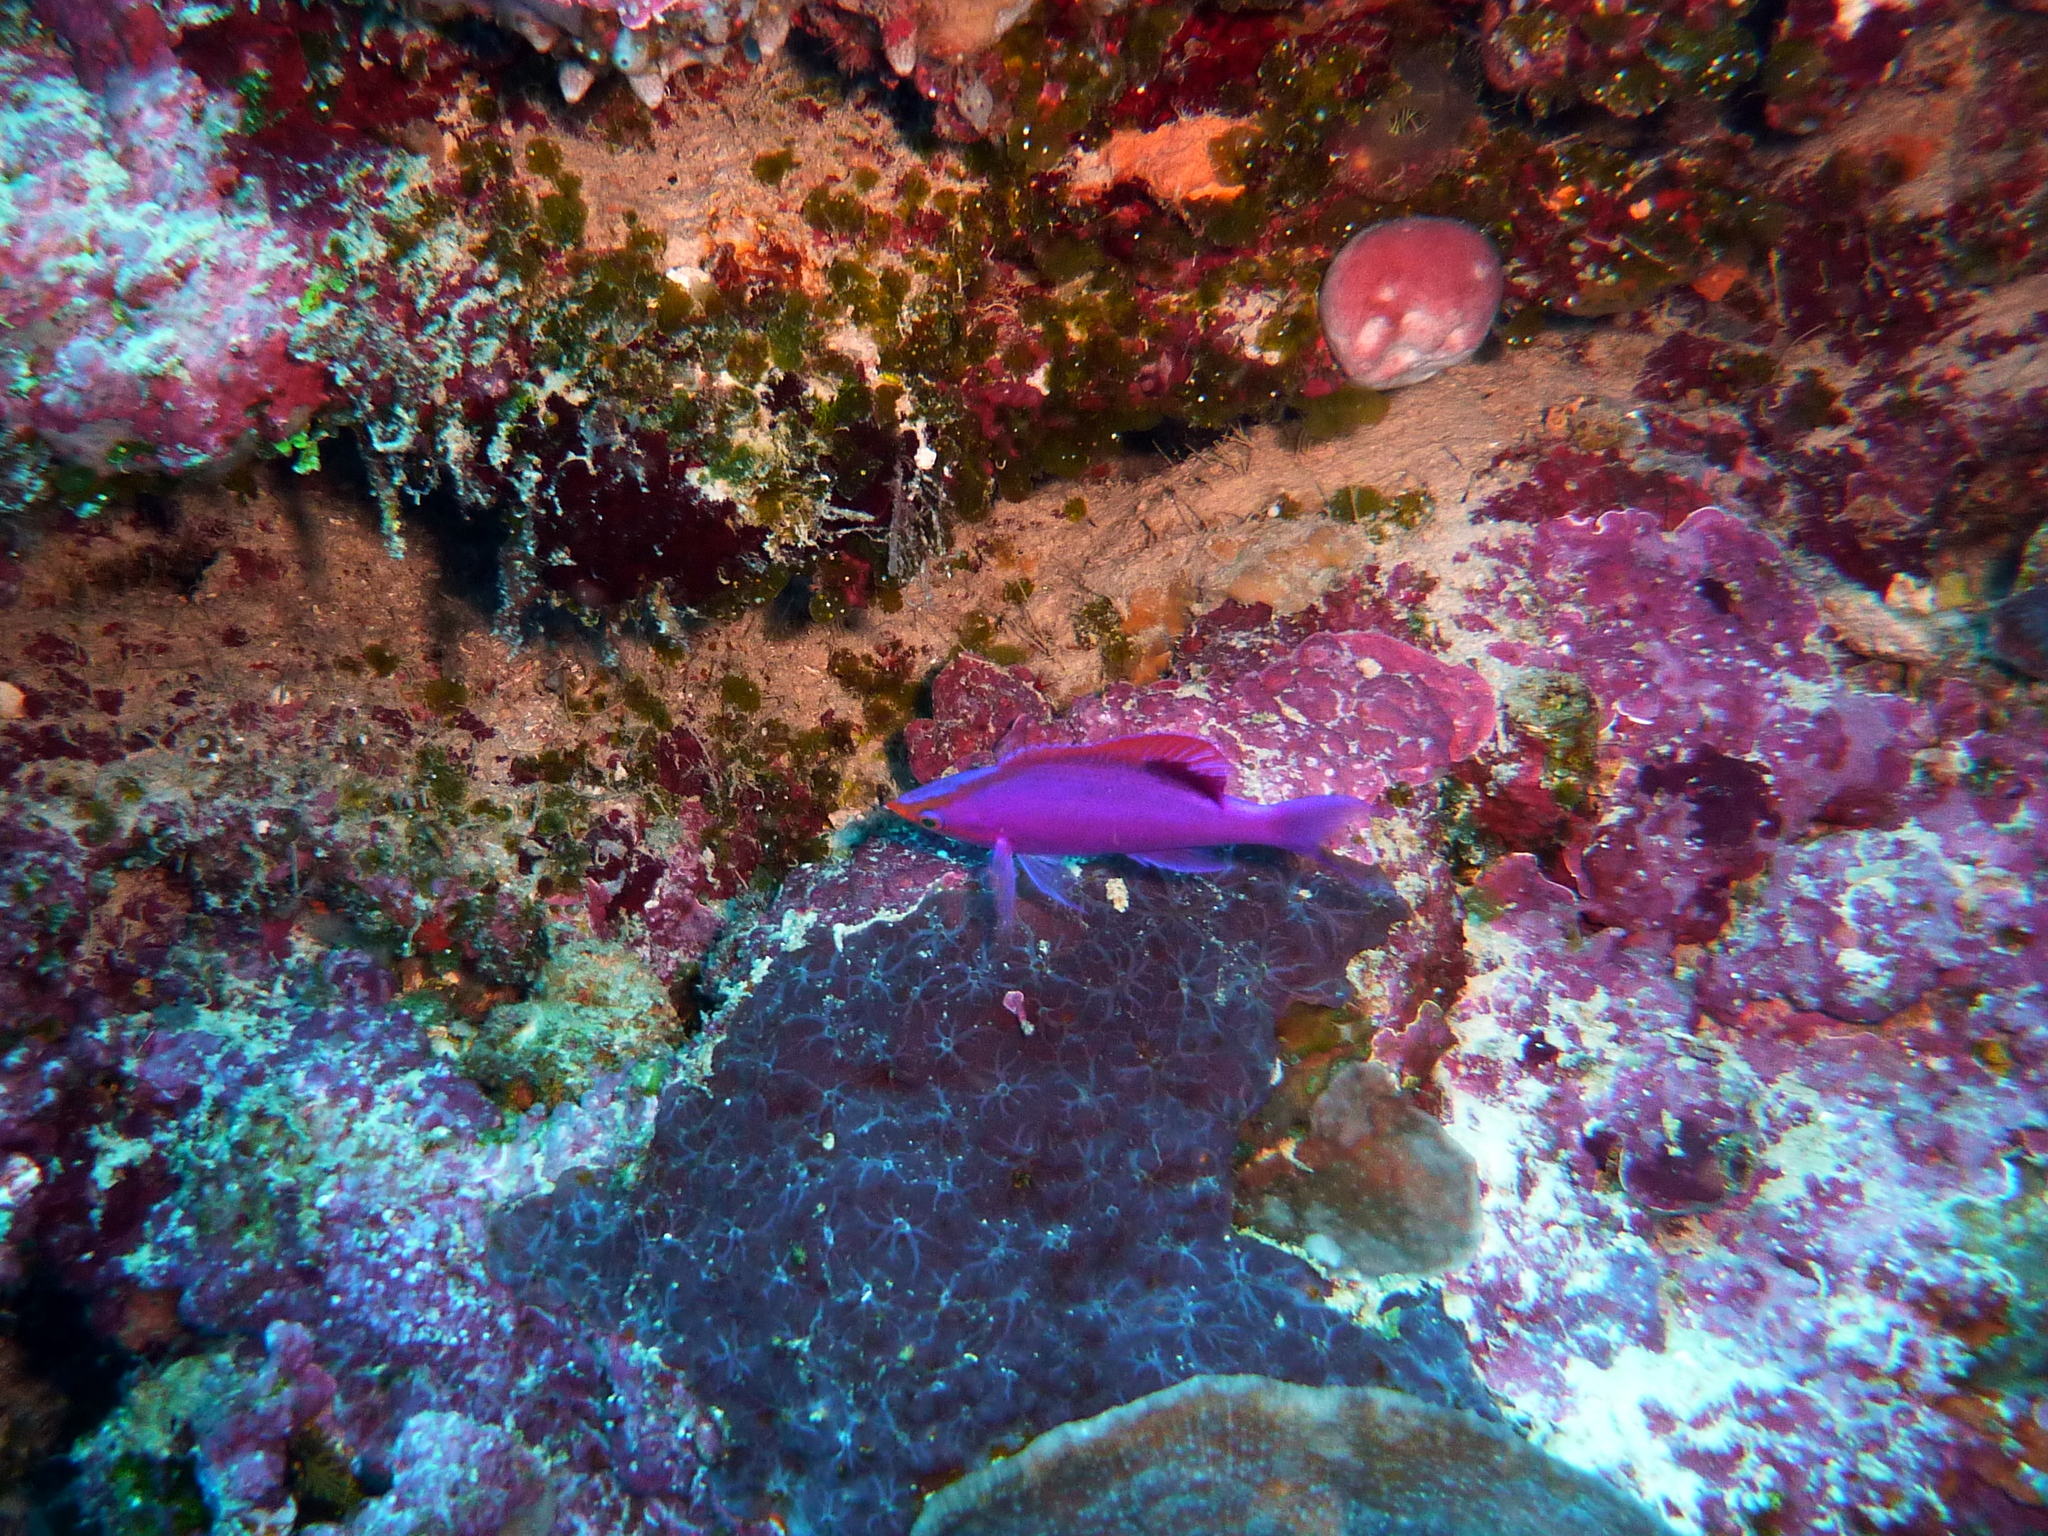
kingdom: Animalia
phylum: Chordata
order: Perciformes
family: Serranidae
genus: Pseudanthias
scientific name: Pseudanthias tuka
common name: Purple queen
